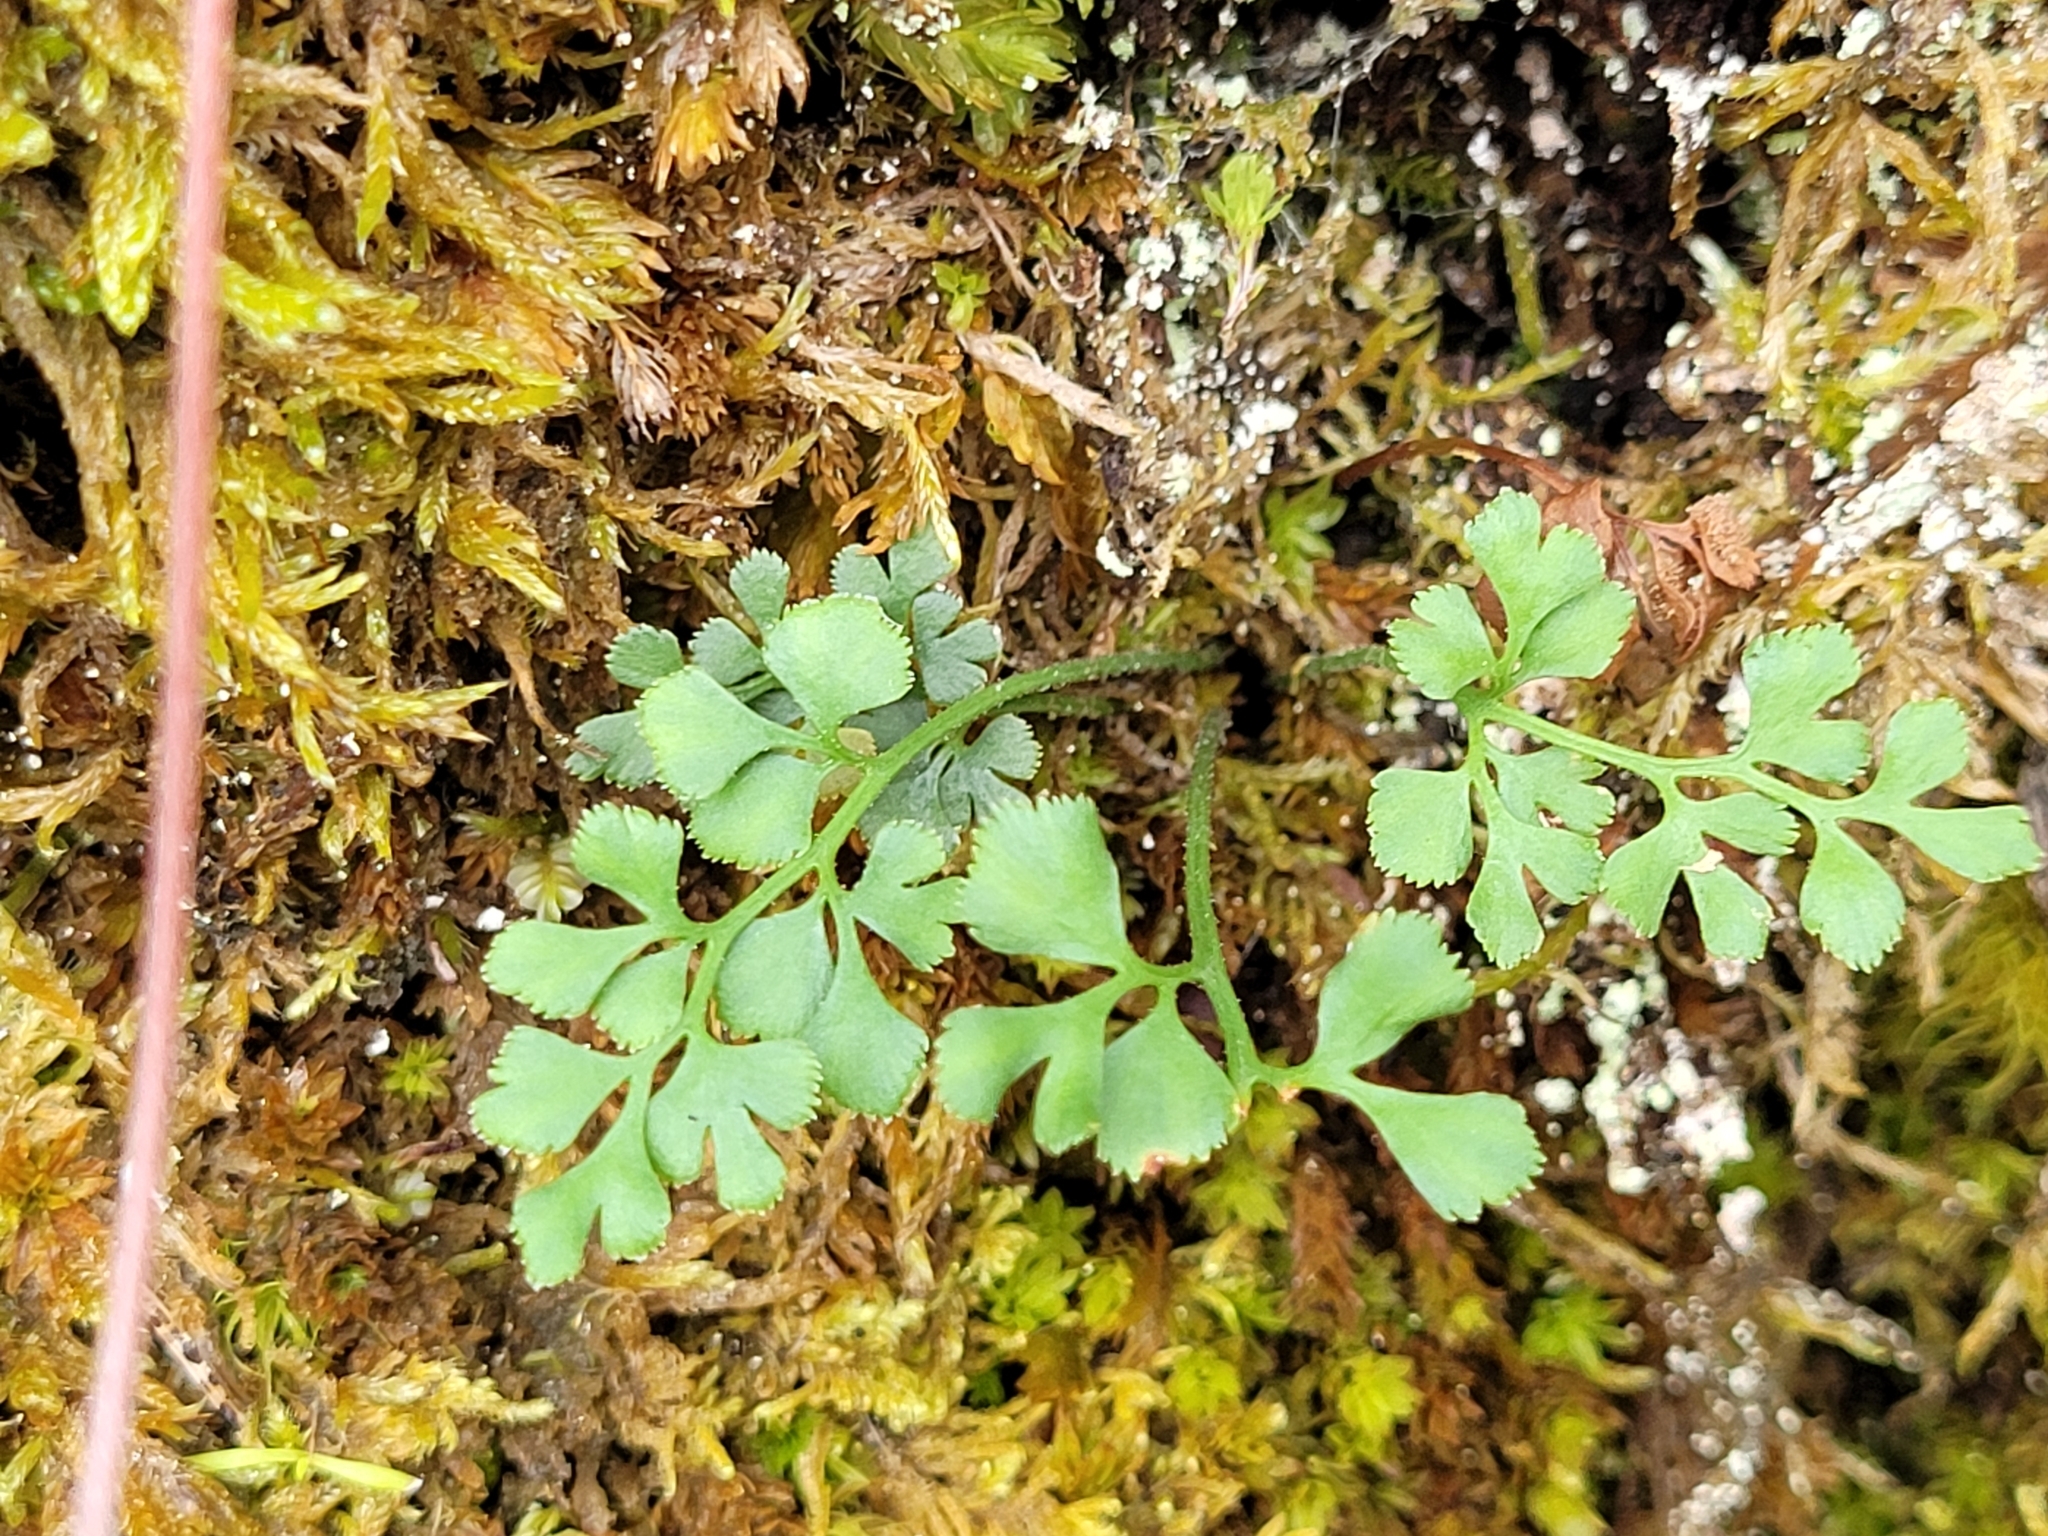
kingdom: Plantae
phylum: Tracheophyta
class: Polypodiopsida
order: Polypodiales
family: Aspleniaceae
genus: Asplenium
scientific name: Asplenium ruta-muraria
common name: Wall-rue
